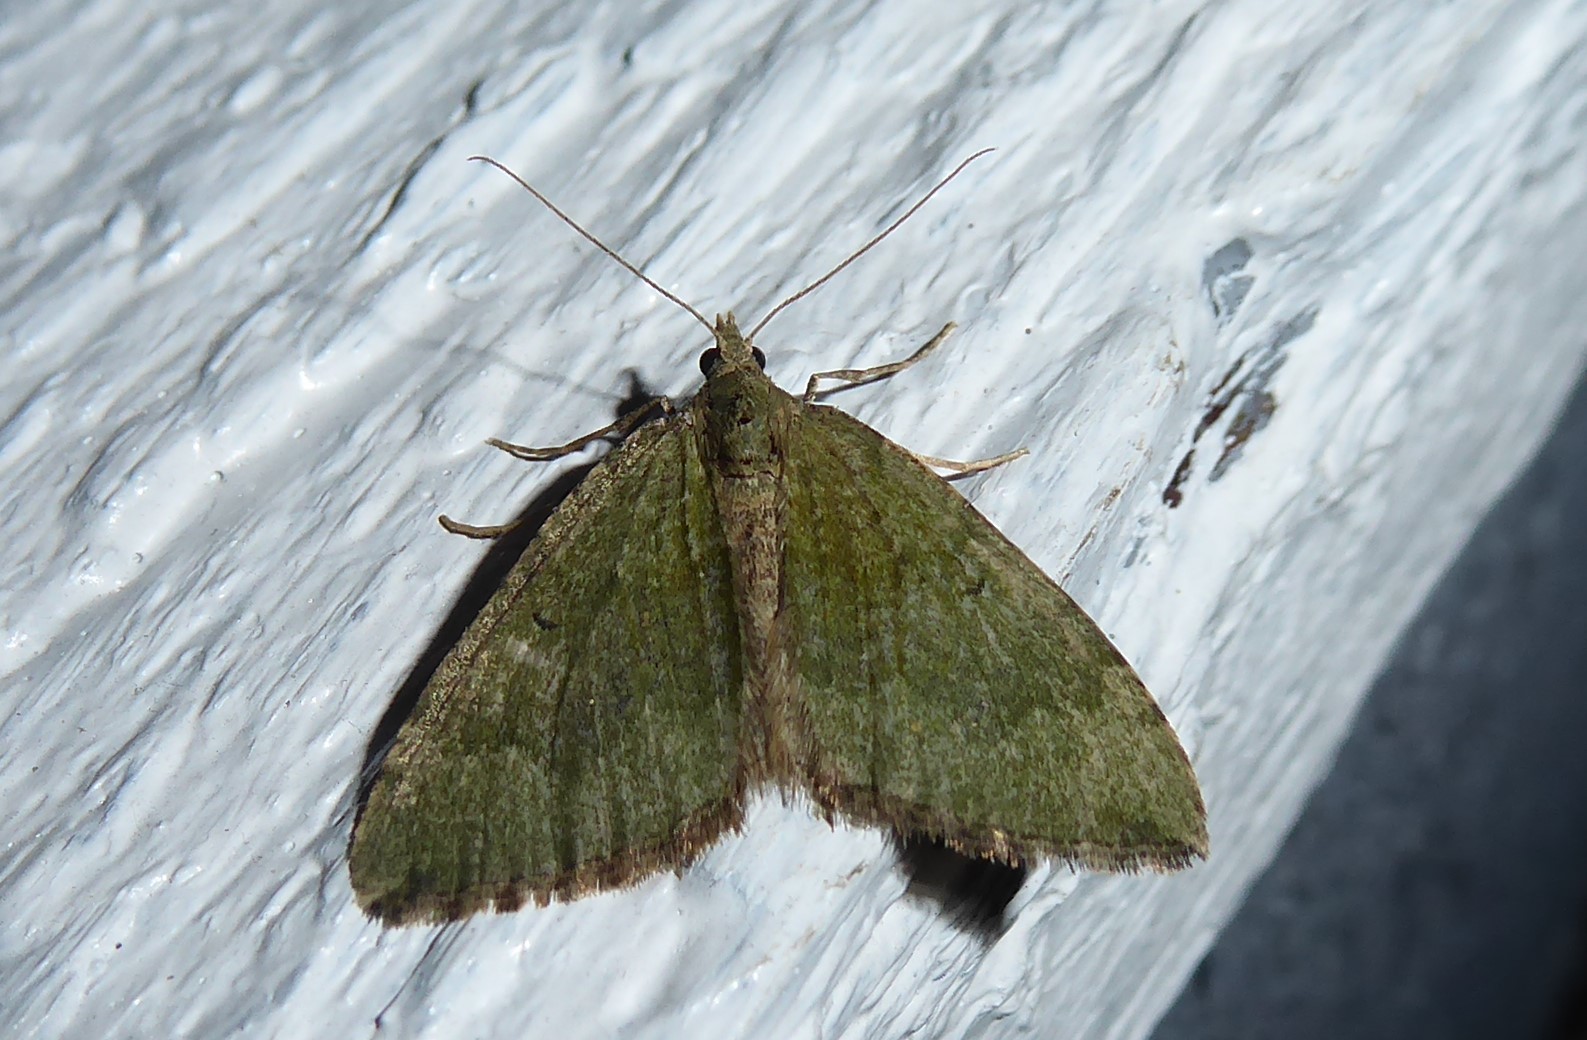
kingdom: Animalia
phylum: Arthropoda
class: Insecta
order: Lepidoptera
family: Geometridae
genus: Epyaxa
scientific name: Epyaxa rosearia
